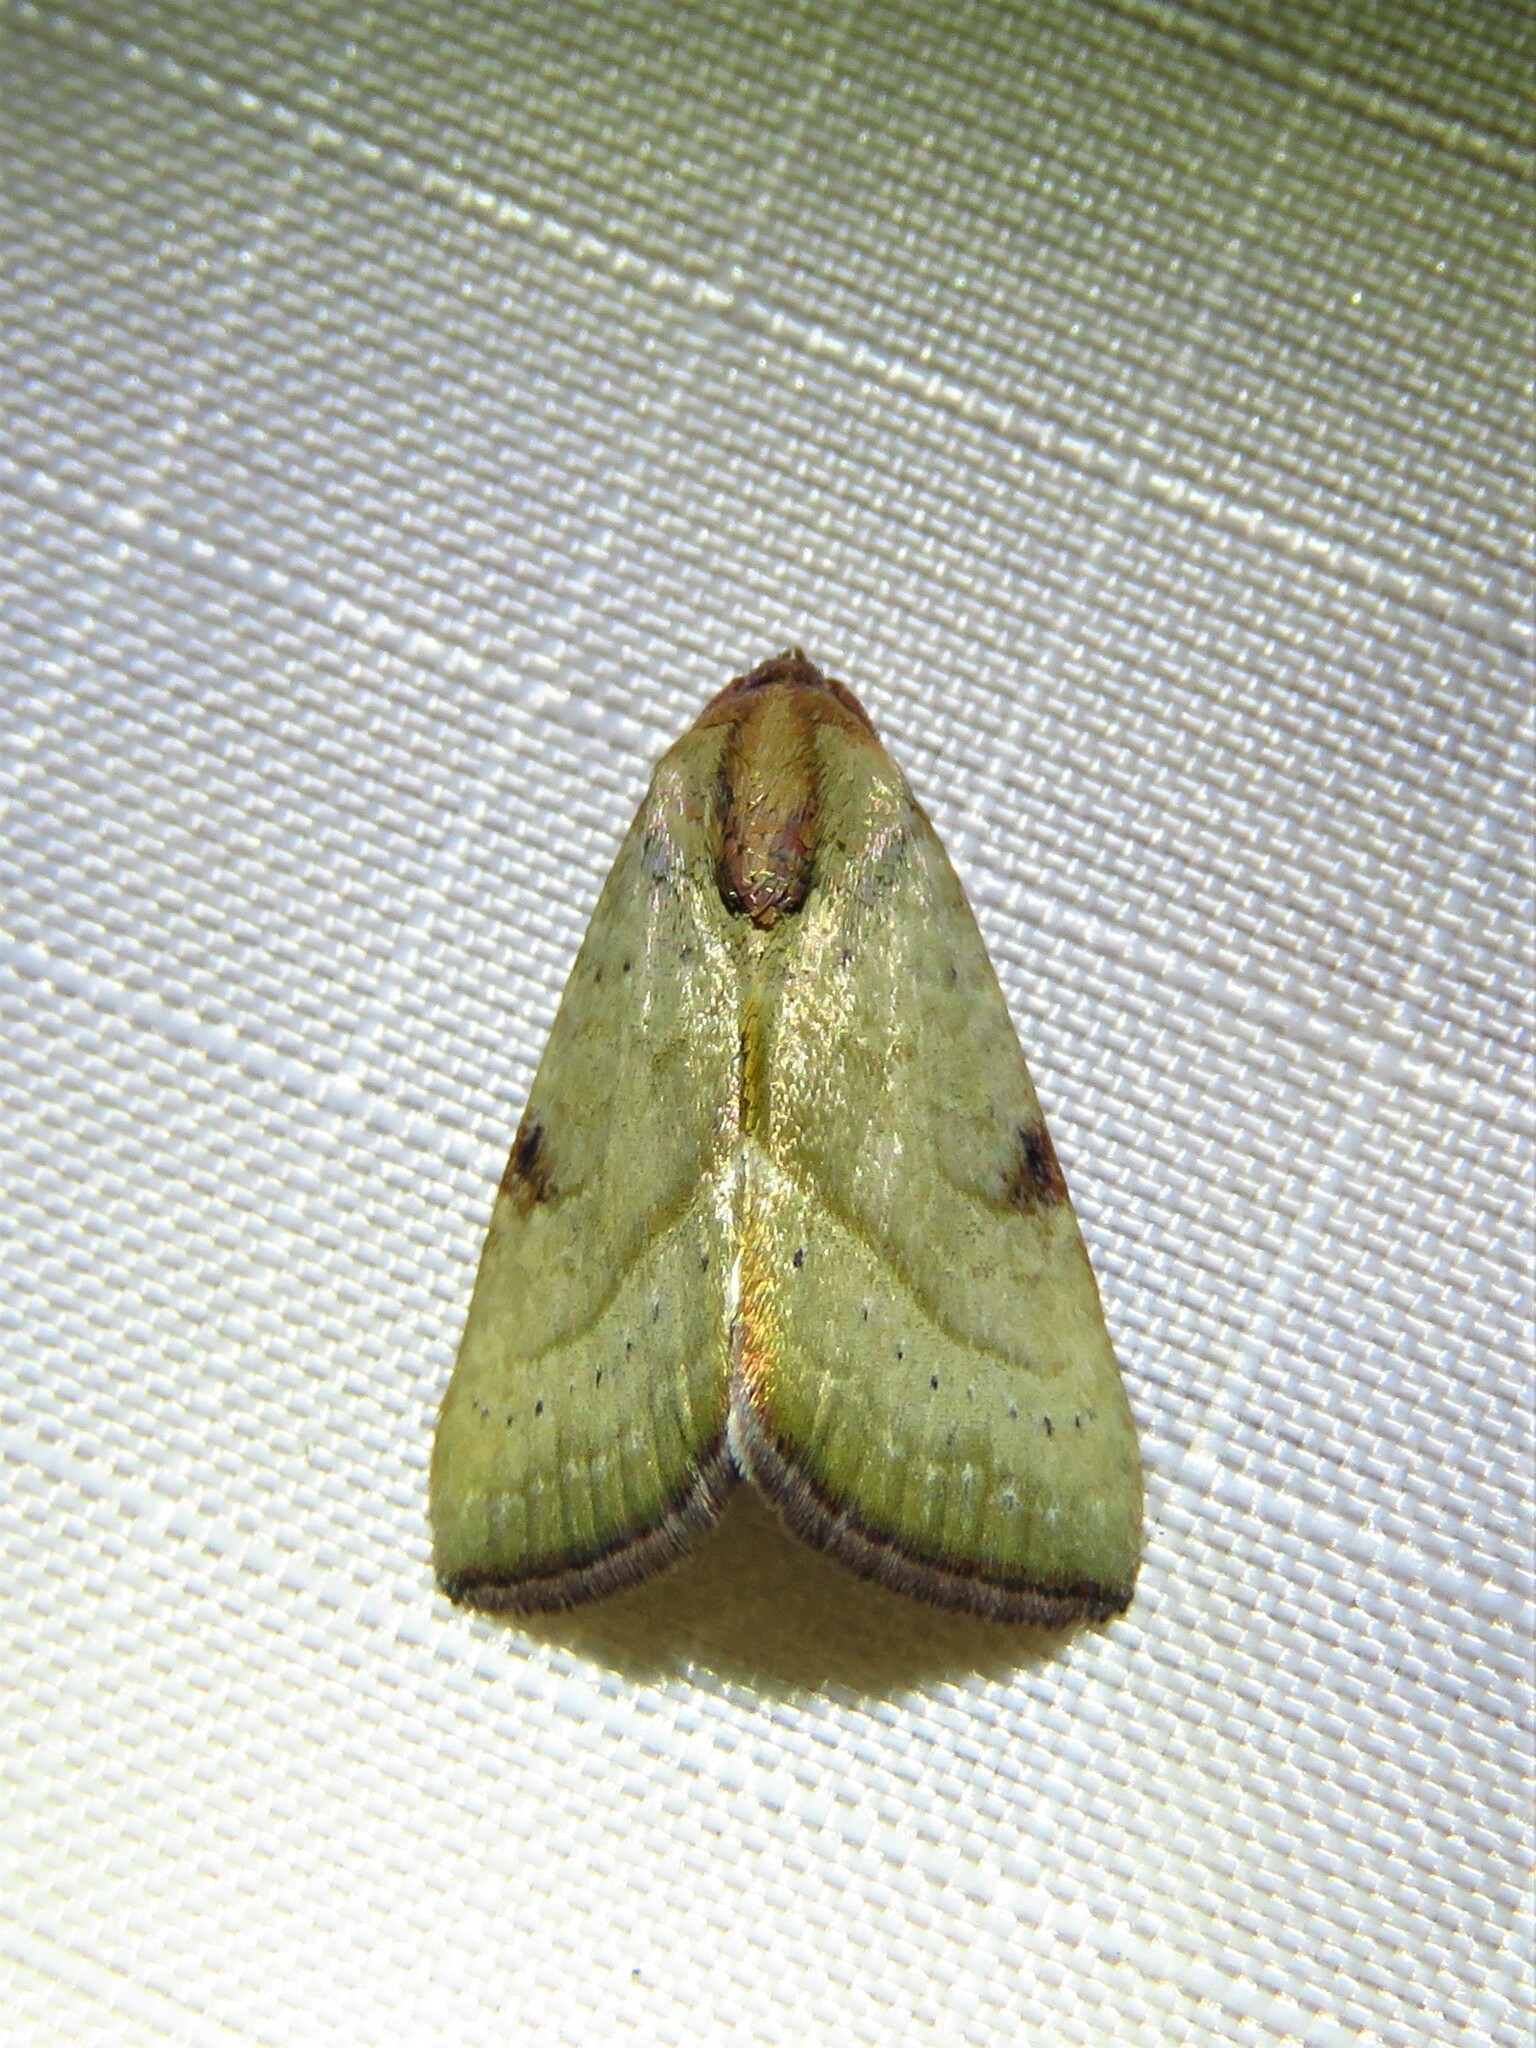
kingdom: Animalia
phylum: Arthropoda
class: Insecta
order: Lepidoptera
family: Noctuidae
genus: Galgula
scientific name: Galgula partita
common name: Wedgeling
